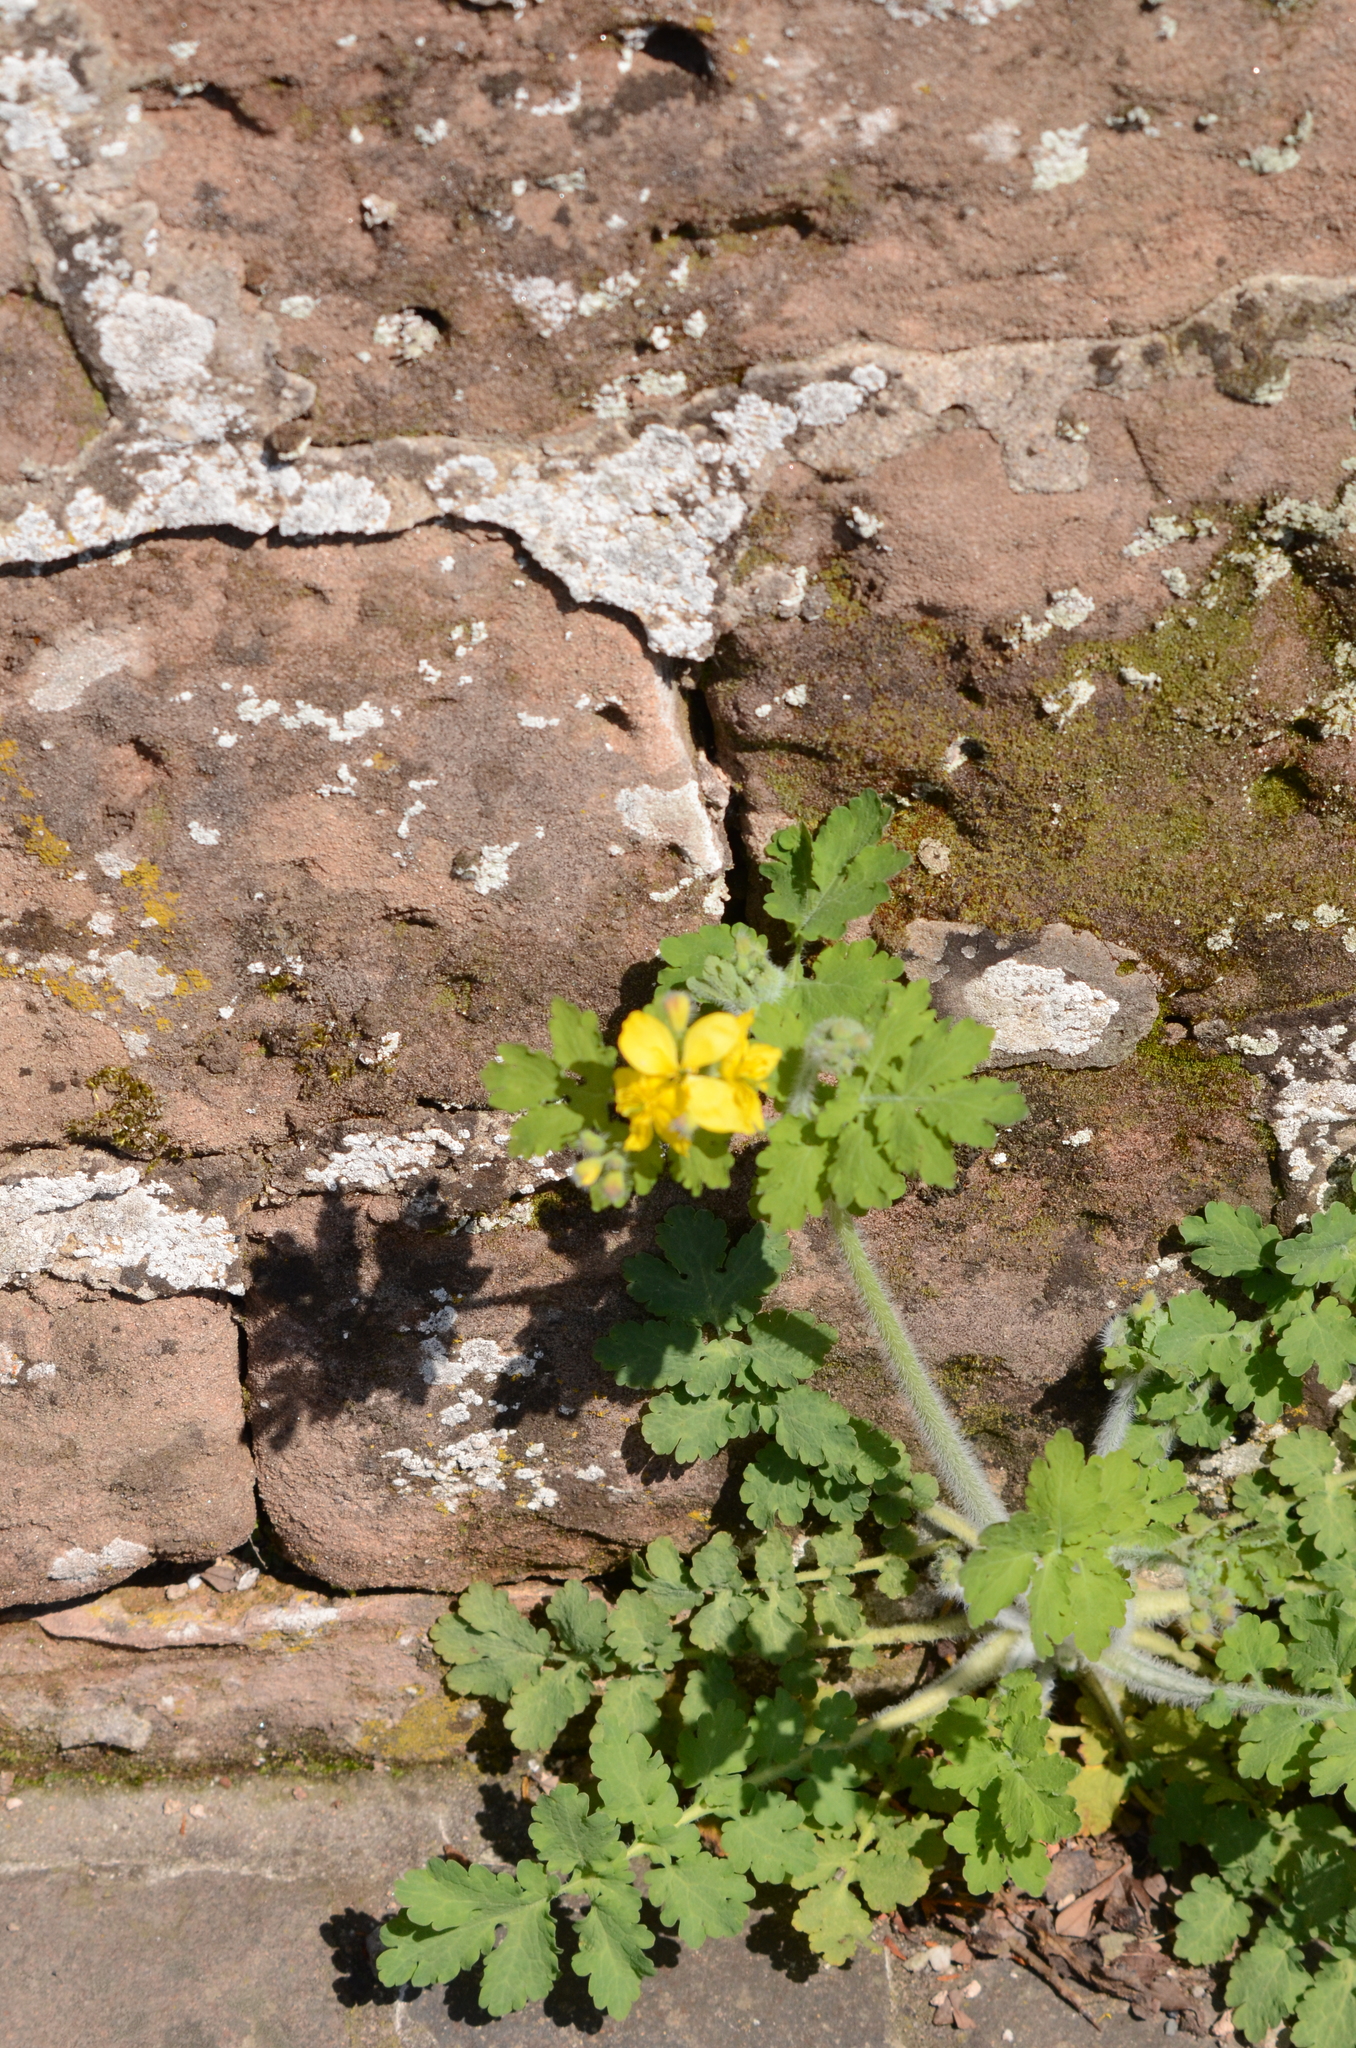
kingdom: Plantae
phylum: Tracheophyta
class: Magnoliopsida
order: Ranunculales
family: Papaveraceae
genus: Chelidonium
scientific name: Chelidonium majus
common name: Greater celandine
